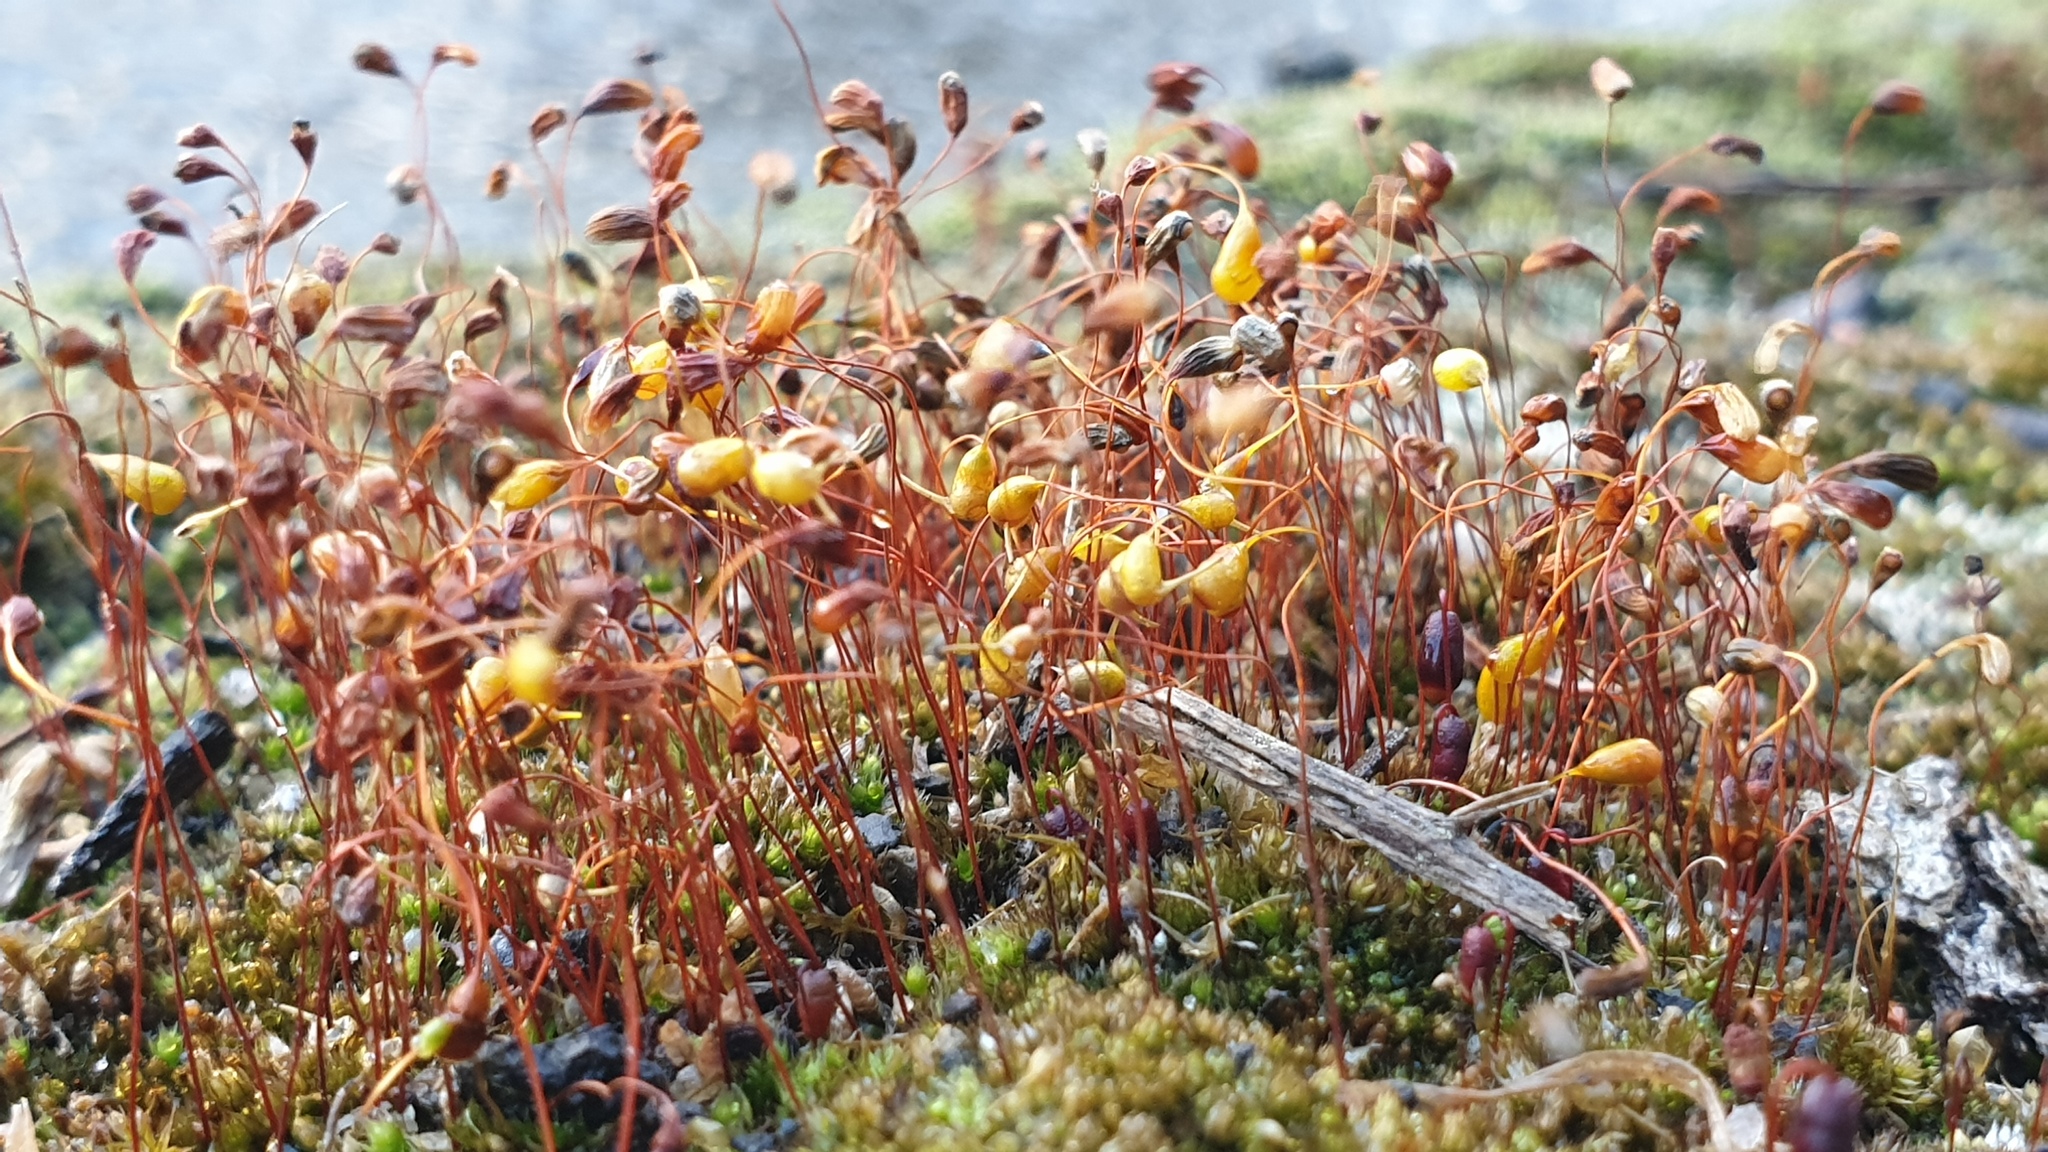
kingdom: Plantae
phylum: Bryophyta
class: Bryopsida
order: Funariales
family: Funariaceae
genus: Funaria
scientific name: Funaria hygrometrica
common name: Common cord moss
